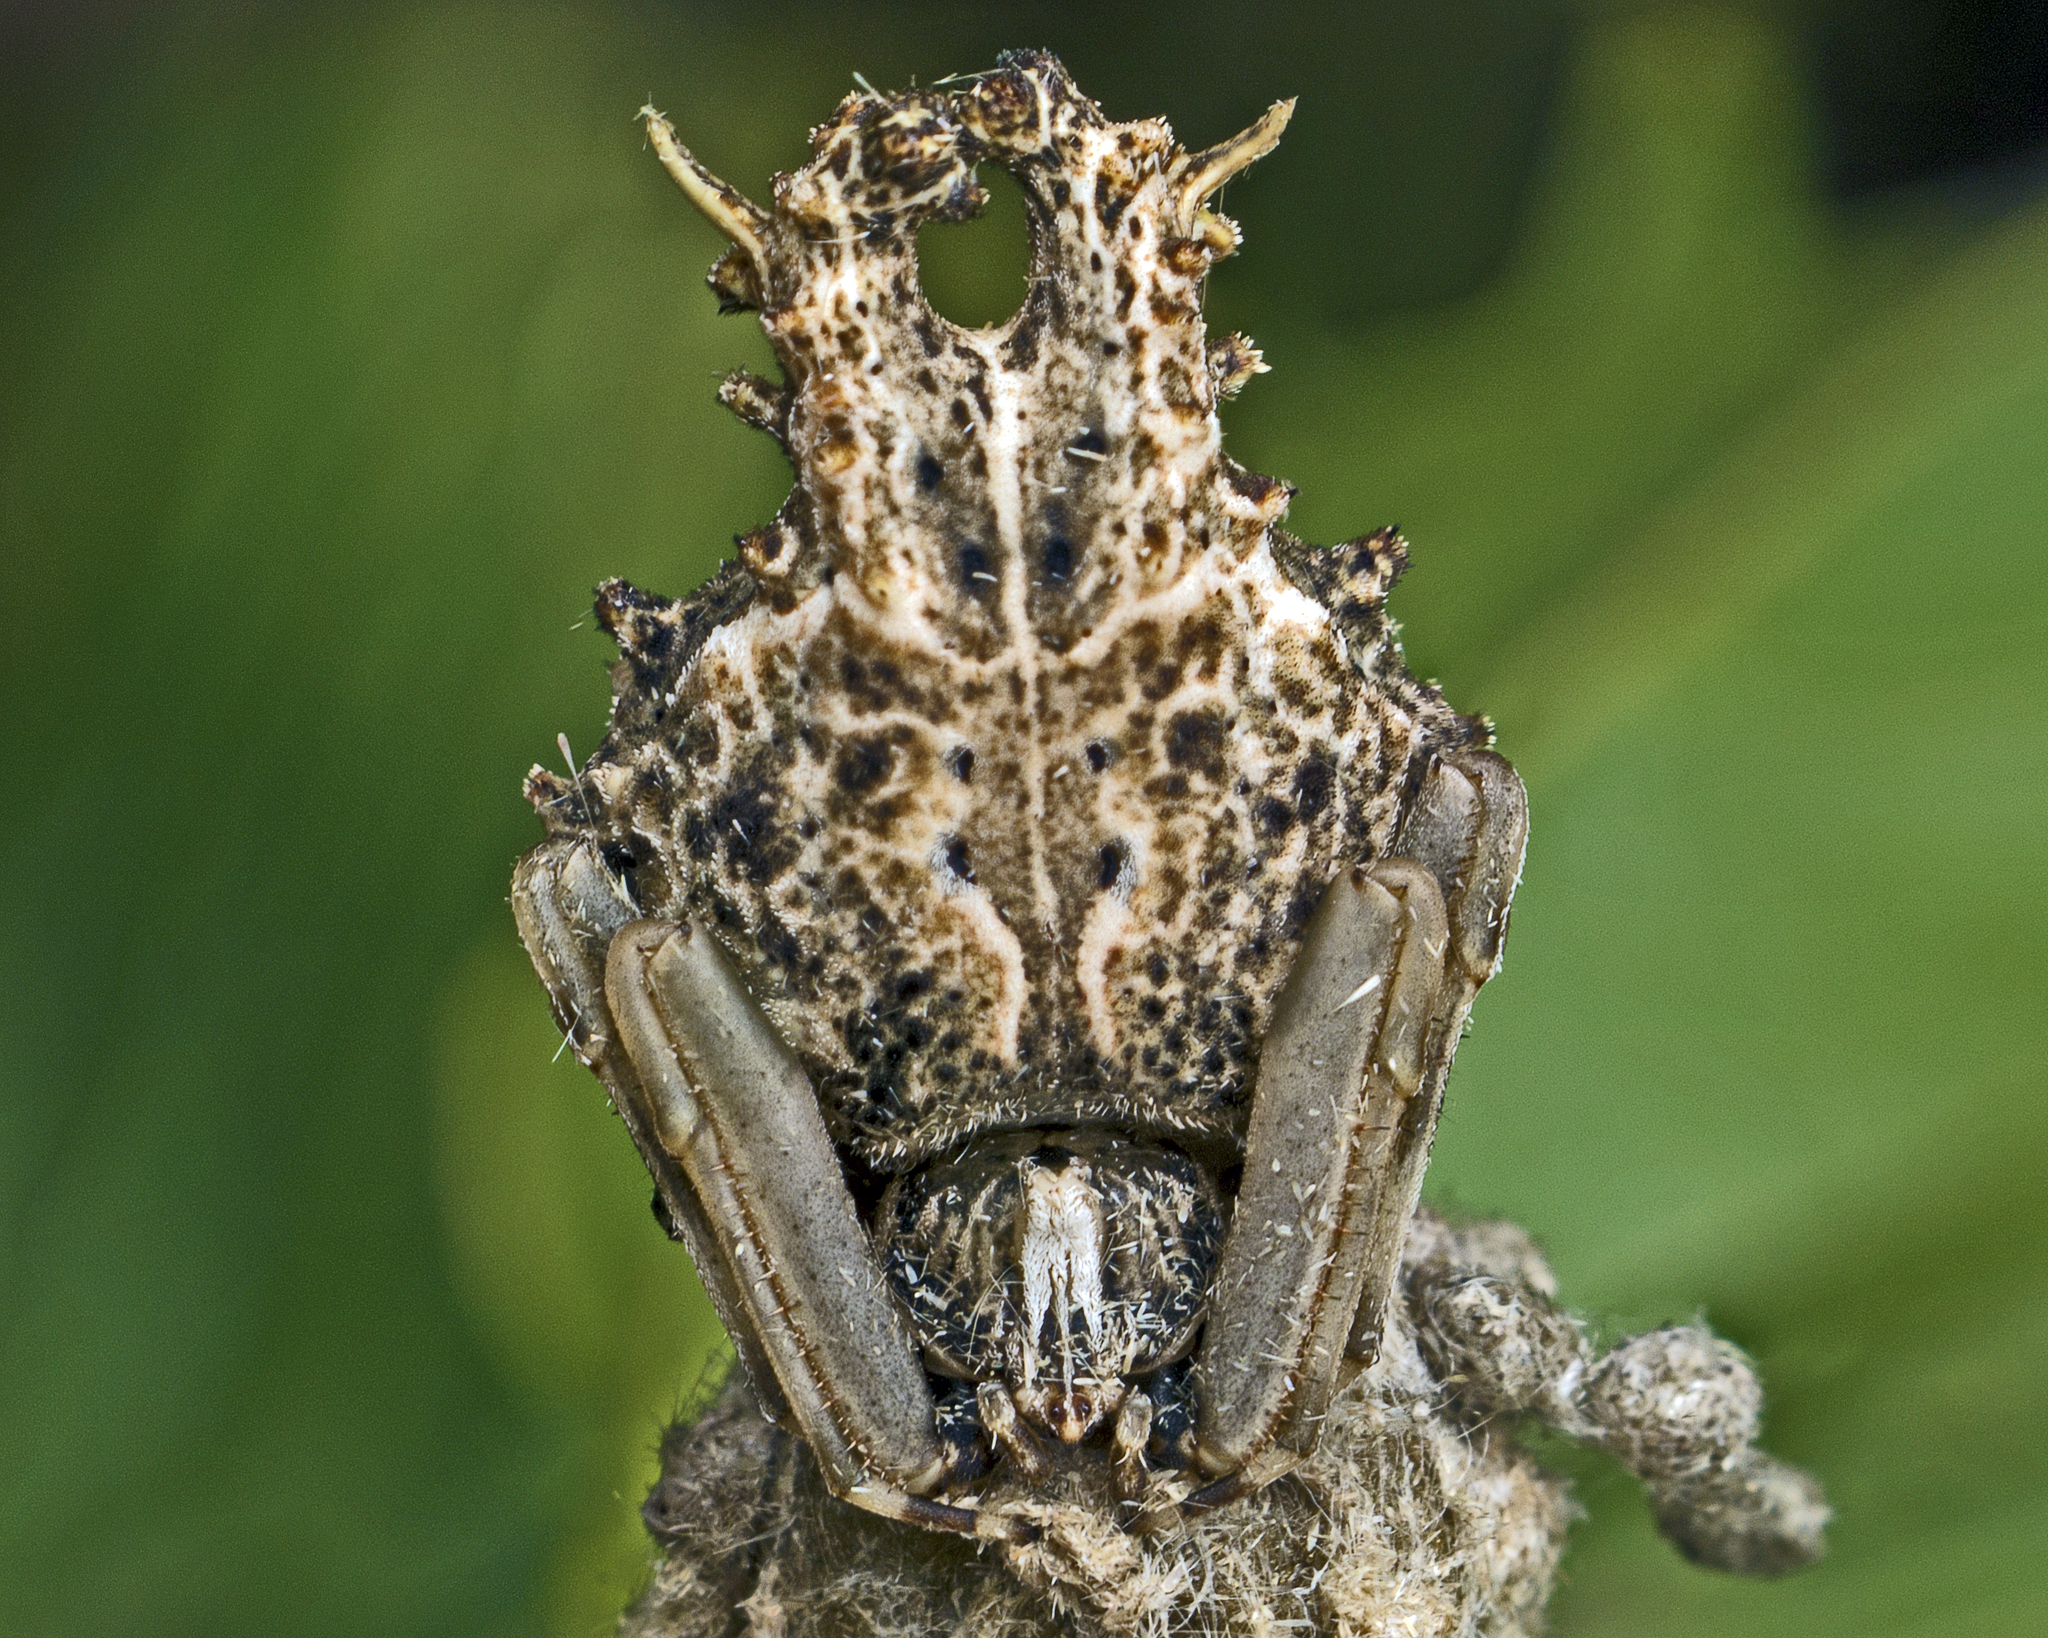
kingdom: Animalia
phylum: Arthropoda
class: Arachnida
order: Araneae
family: Araneidae
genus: Celaenia
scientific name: Celaenia distincta
